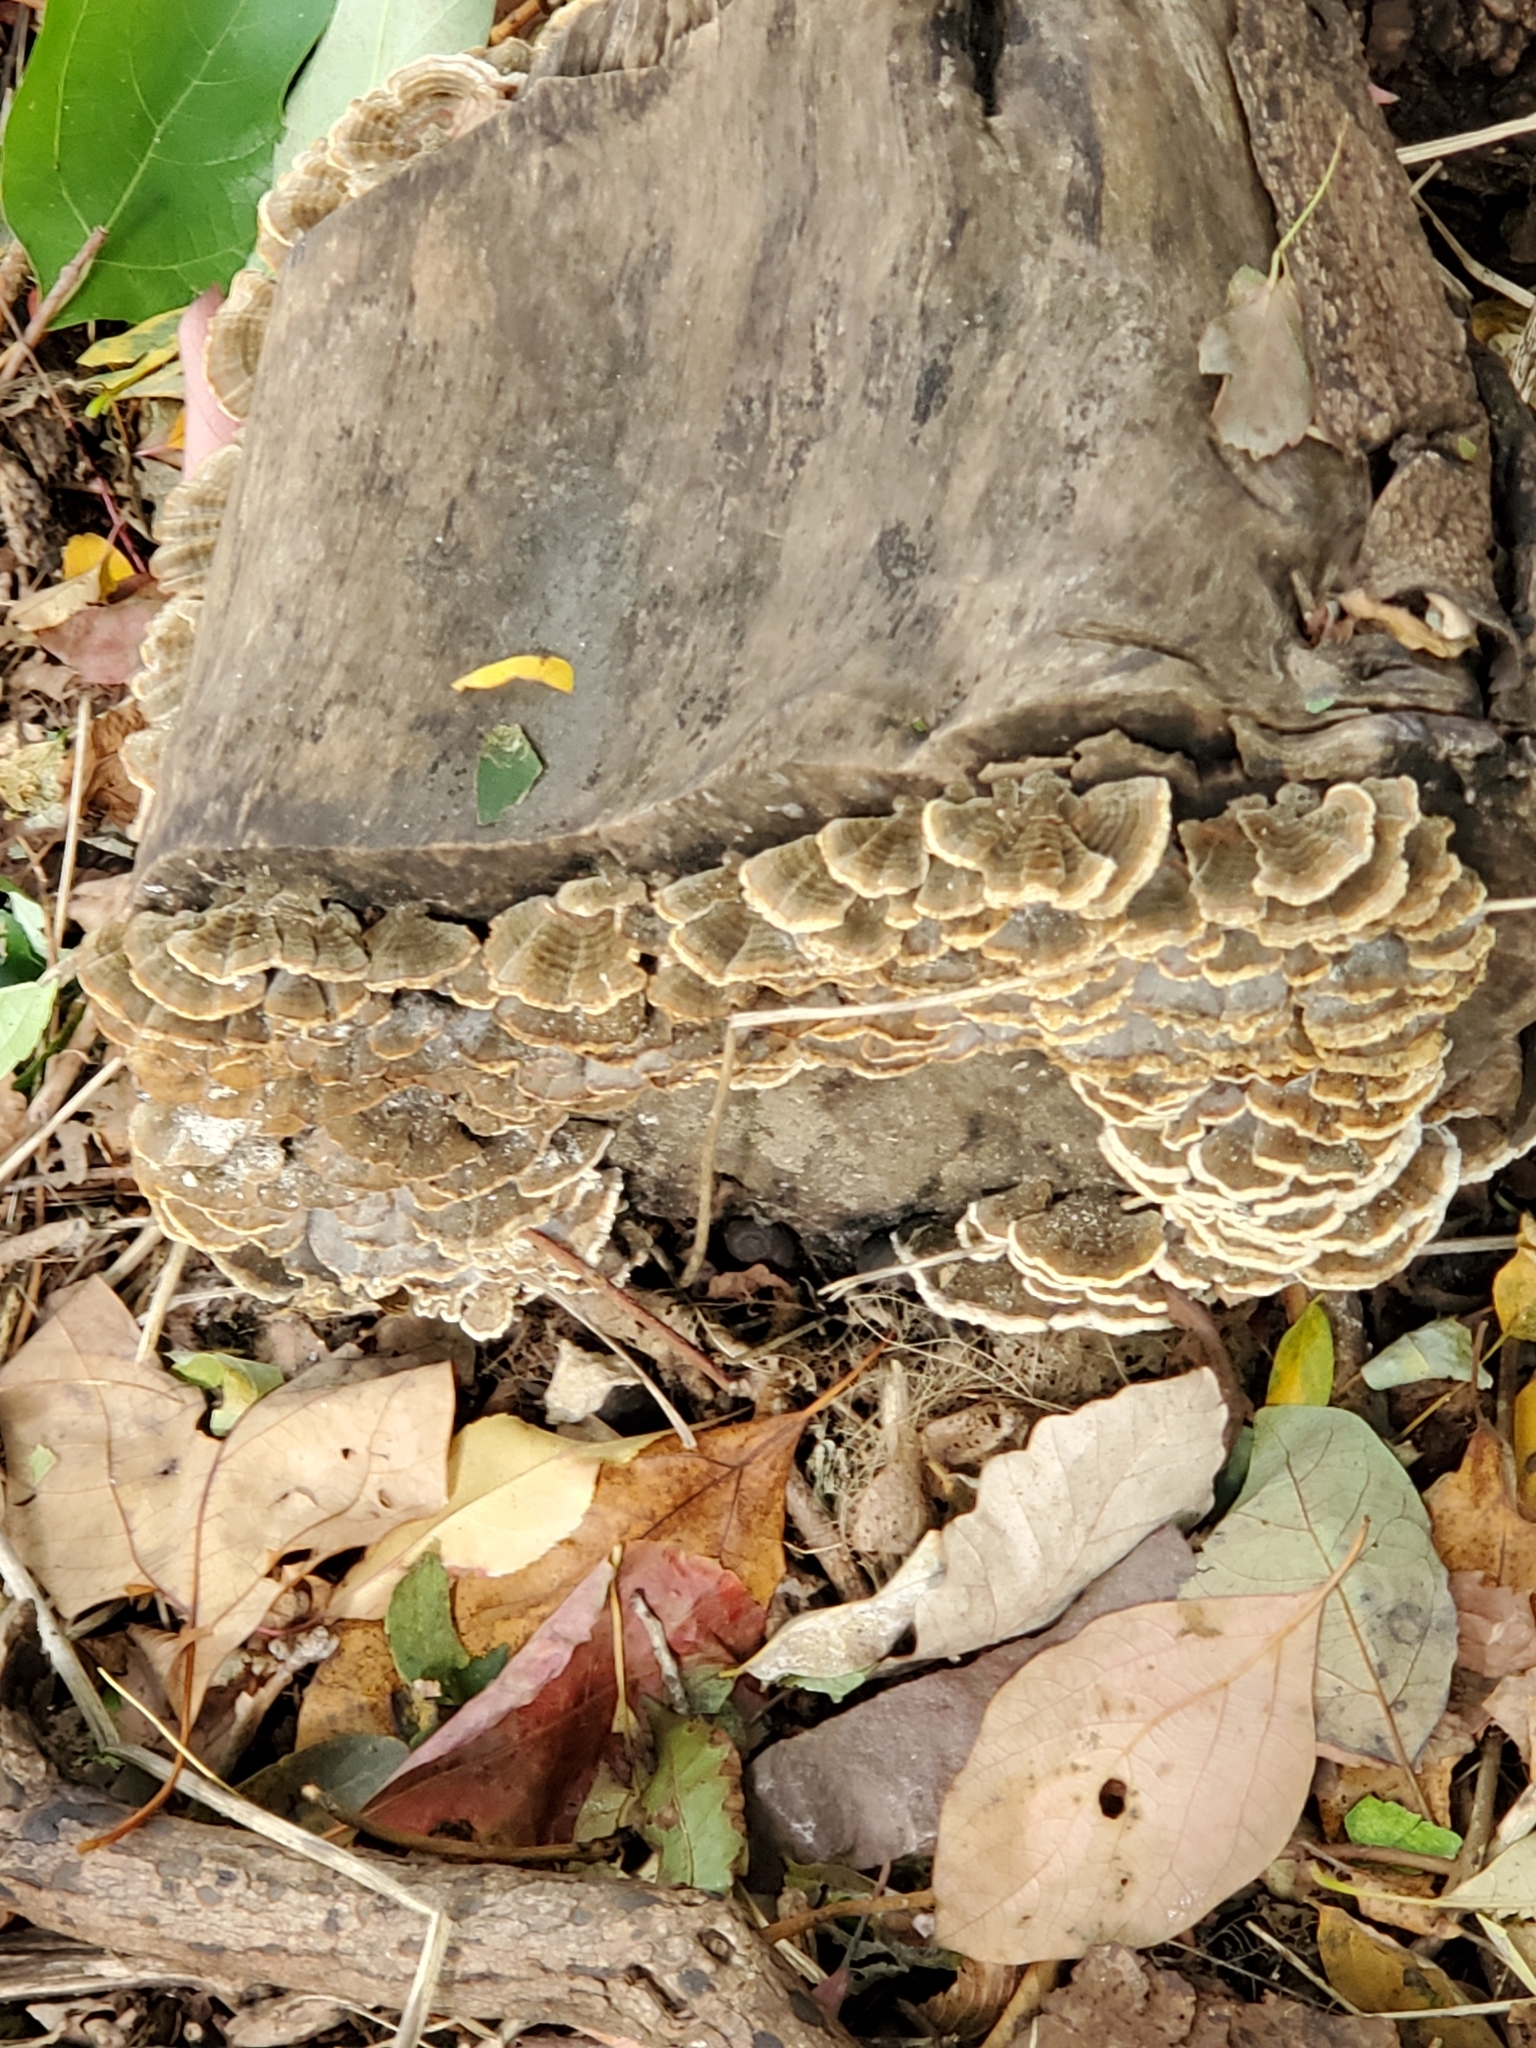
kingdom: Fungi
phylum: Basidiomycota
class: Agaricomycetes
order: Polyporales
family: Polyporaceae
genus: Trametes
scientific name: Trametes versicolor
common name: Turkeytail
